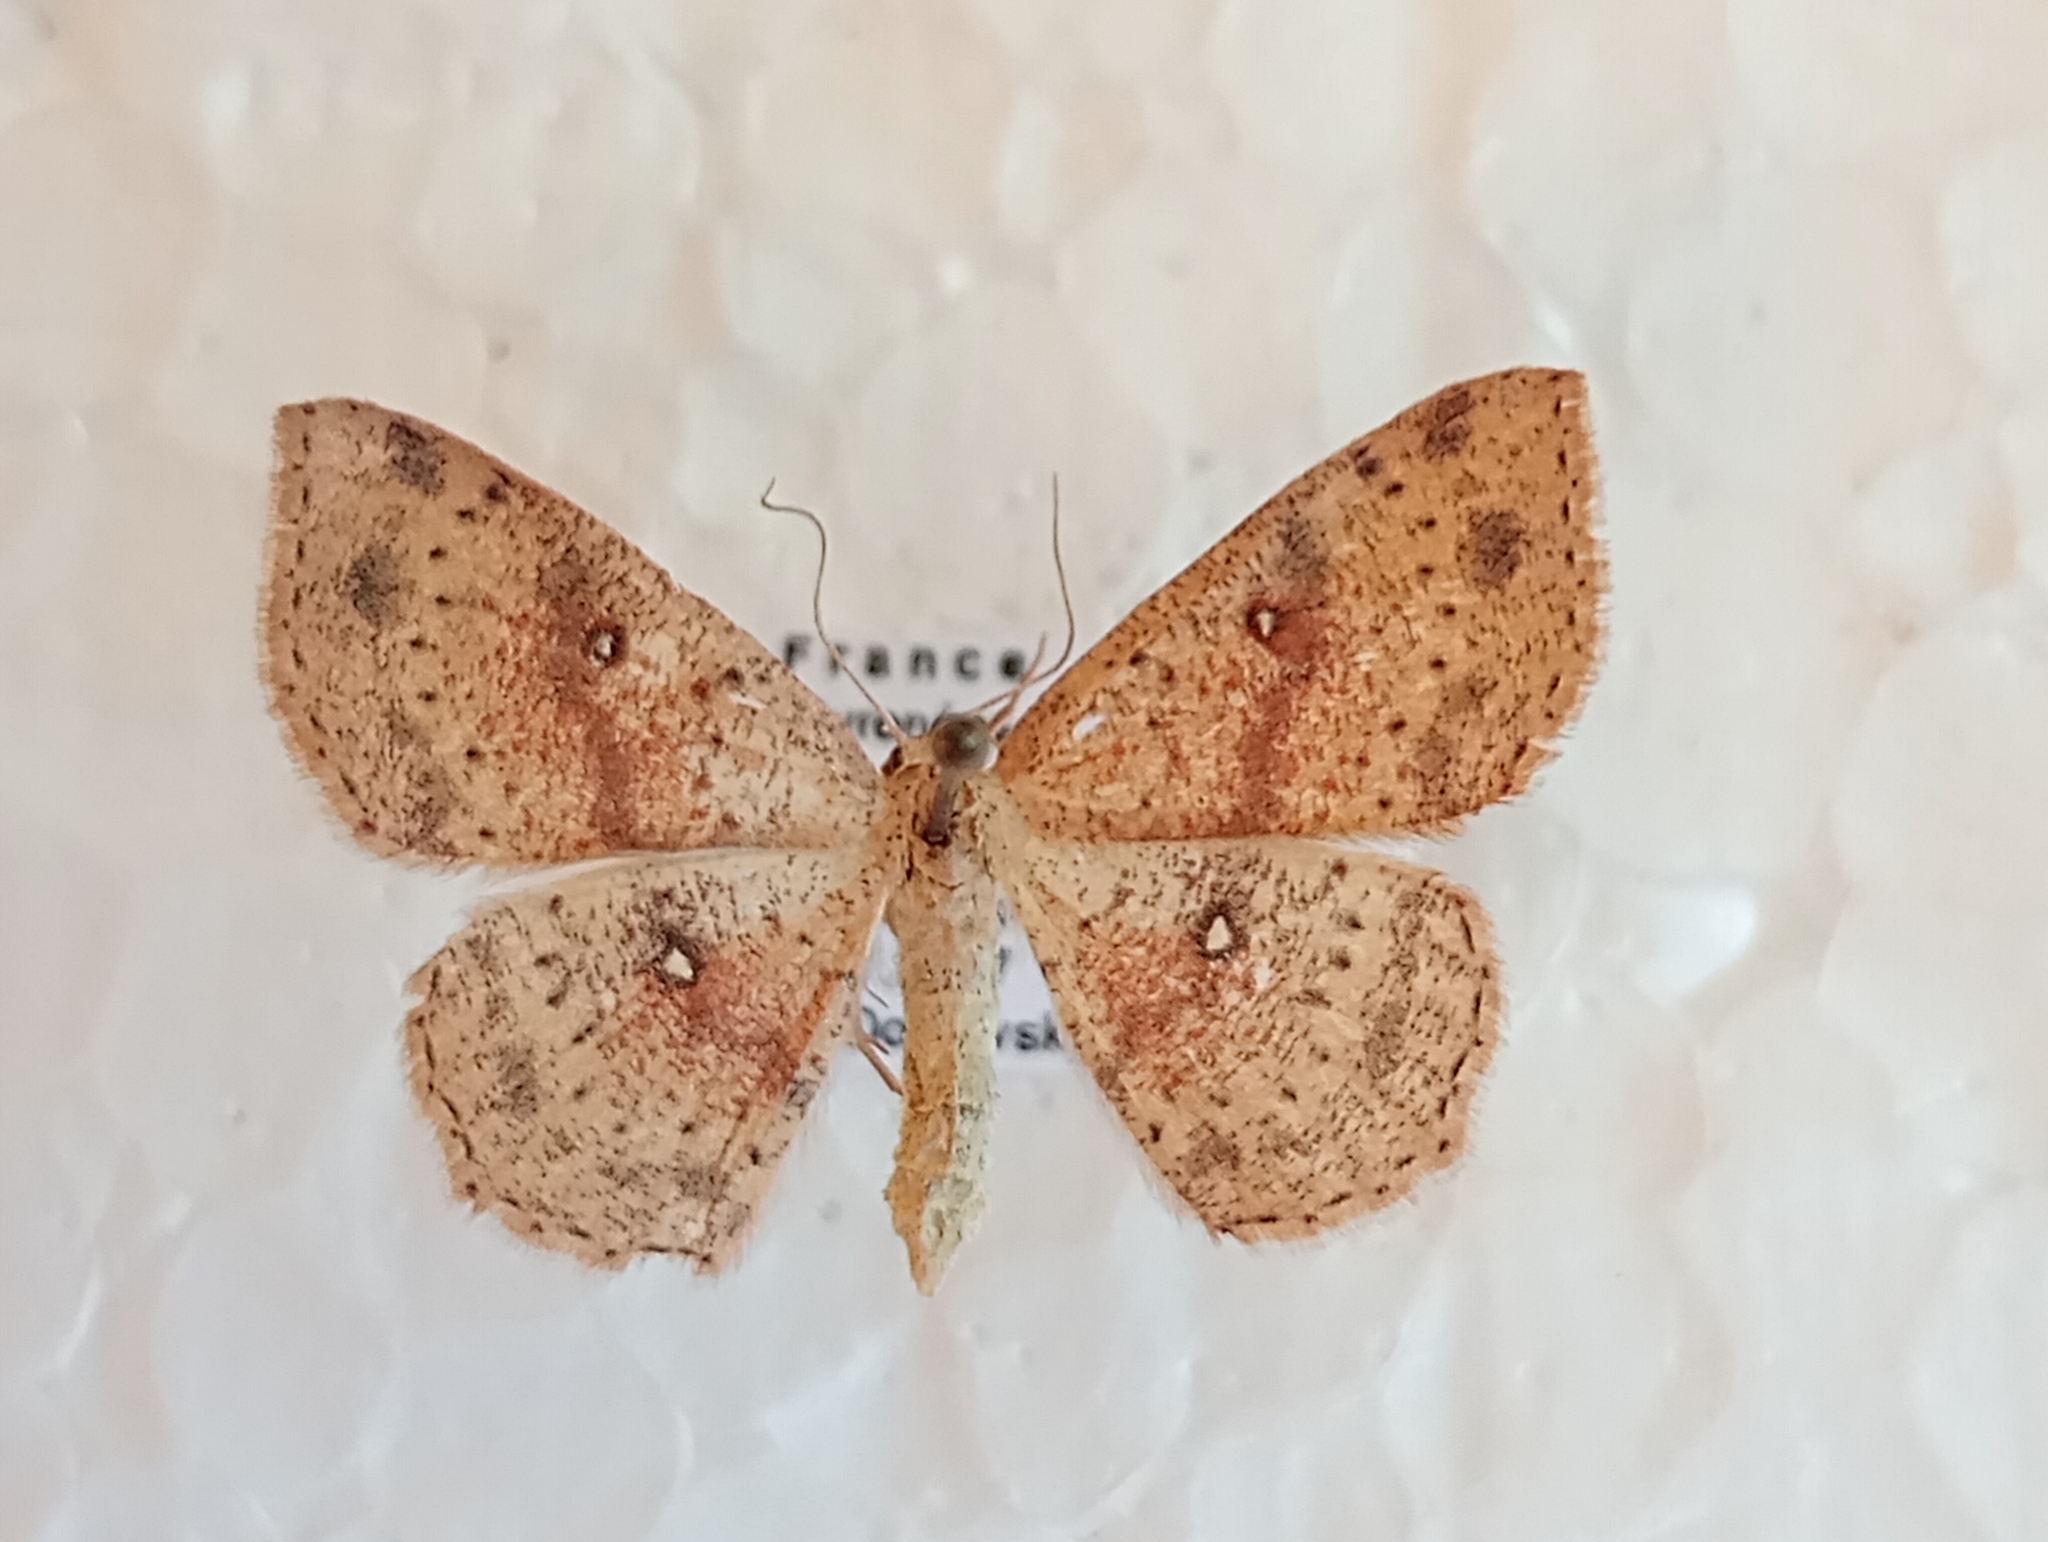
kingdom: Animalia
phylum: Arthropoda
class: Insecta
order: Lepidoptera
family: Geometridae
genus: Cyclophora
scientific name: Cyclophora porata
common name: False mocha
